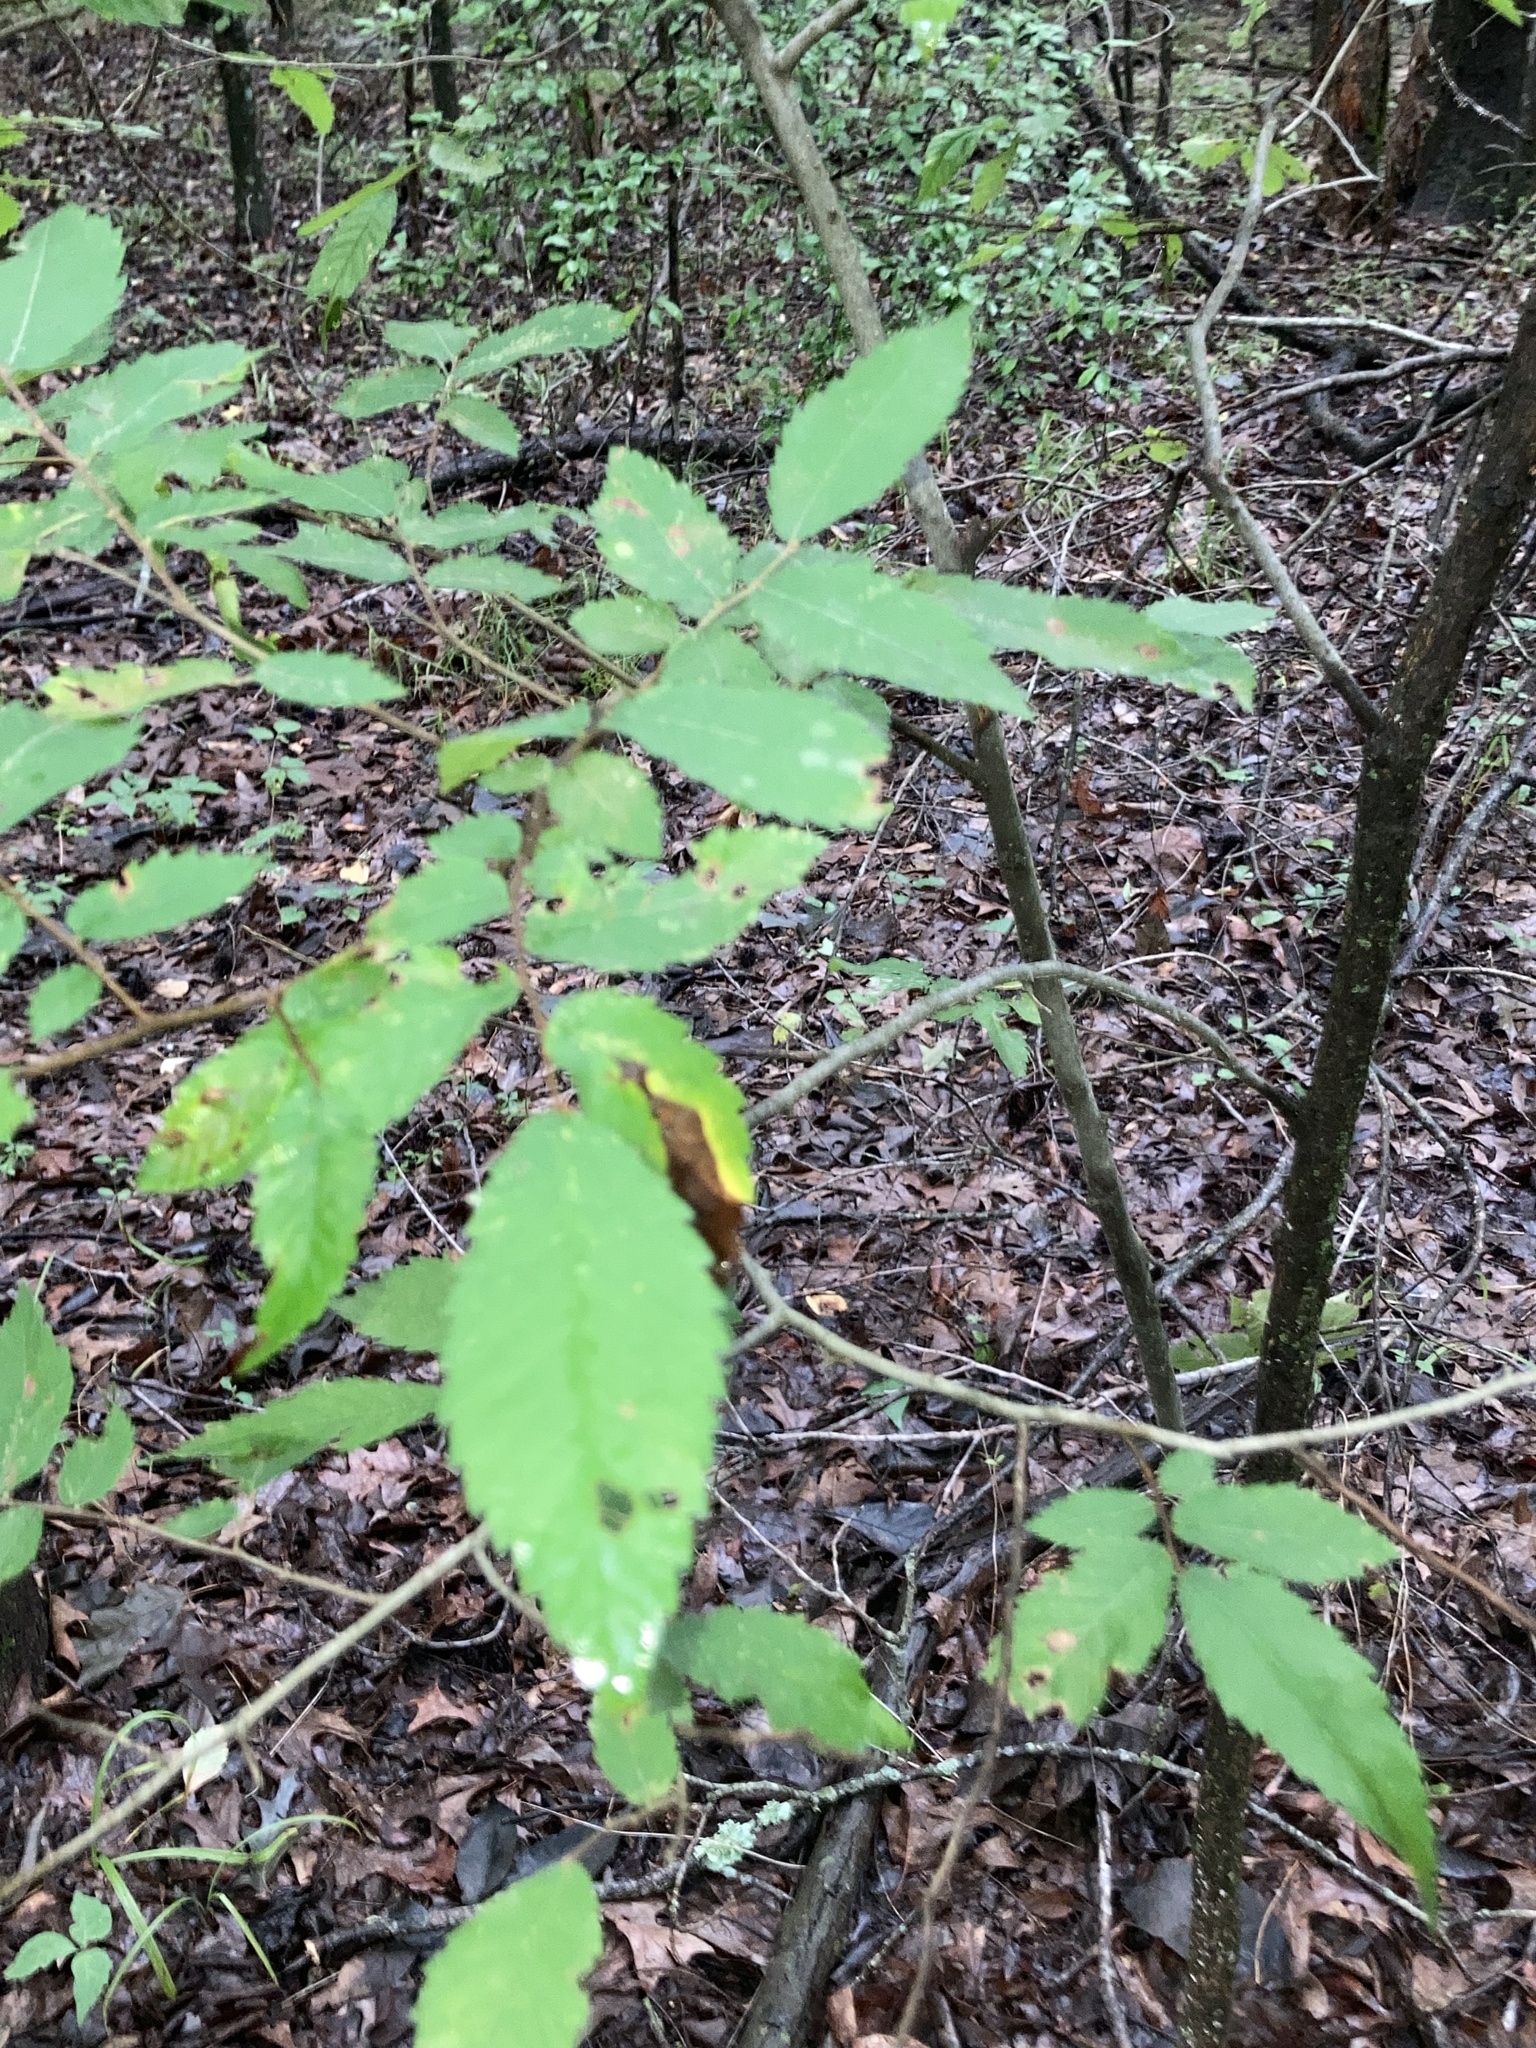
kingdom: Plantae
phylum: Tracheophyta
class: Magnoliopsida
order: Rosales
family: Ulmaceae
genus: Ulmus
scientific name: Ulmus alata
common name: Winged elm
